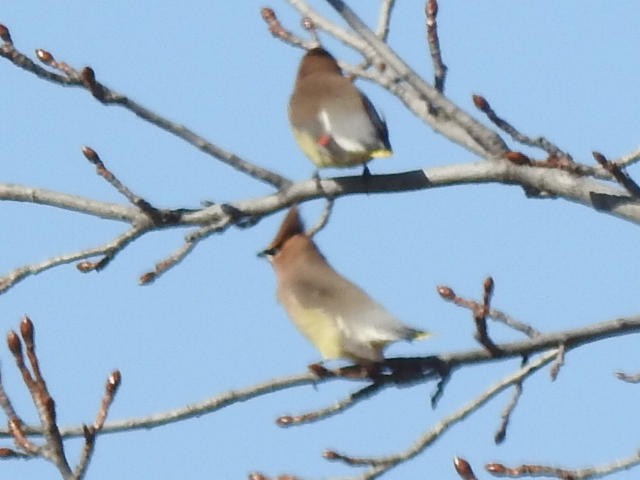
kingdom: Animalia
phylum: Chordata
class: Aves
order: Passeriformes
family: Bombycillidae
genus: Bombycilla
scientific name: Bombycilla cedrorum
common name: Cedar waxwing
